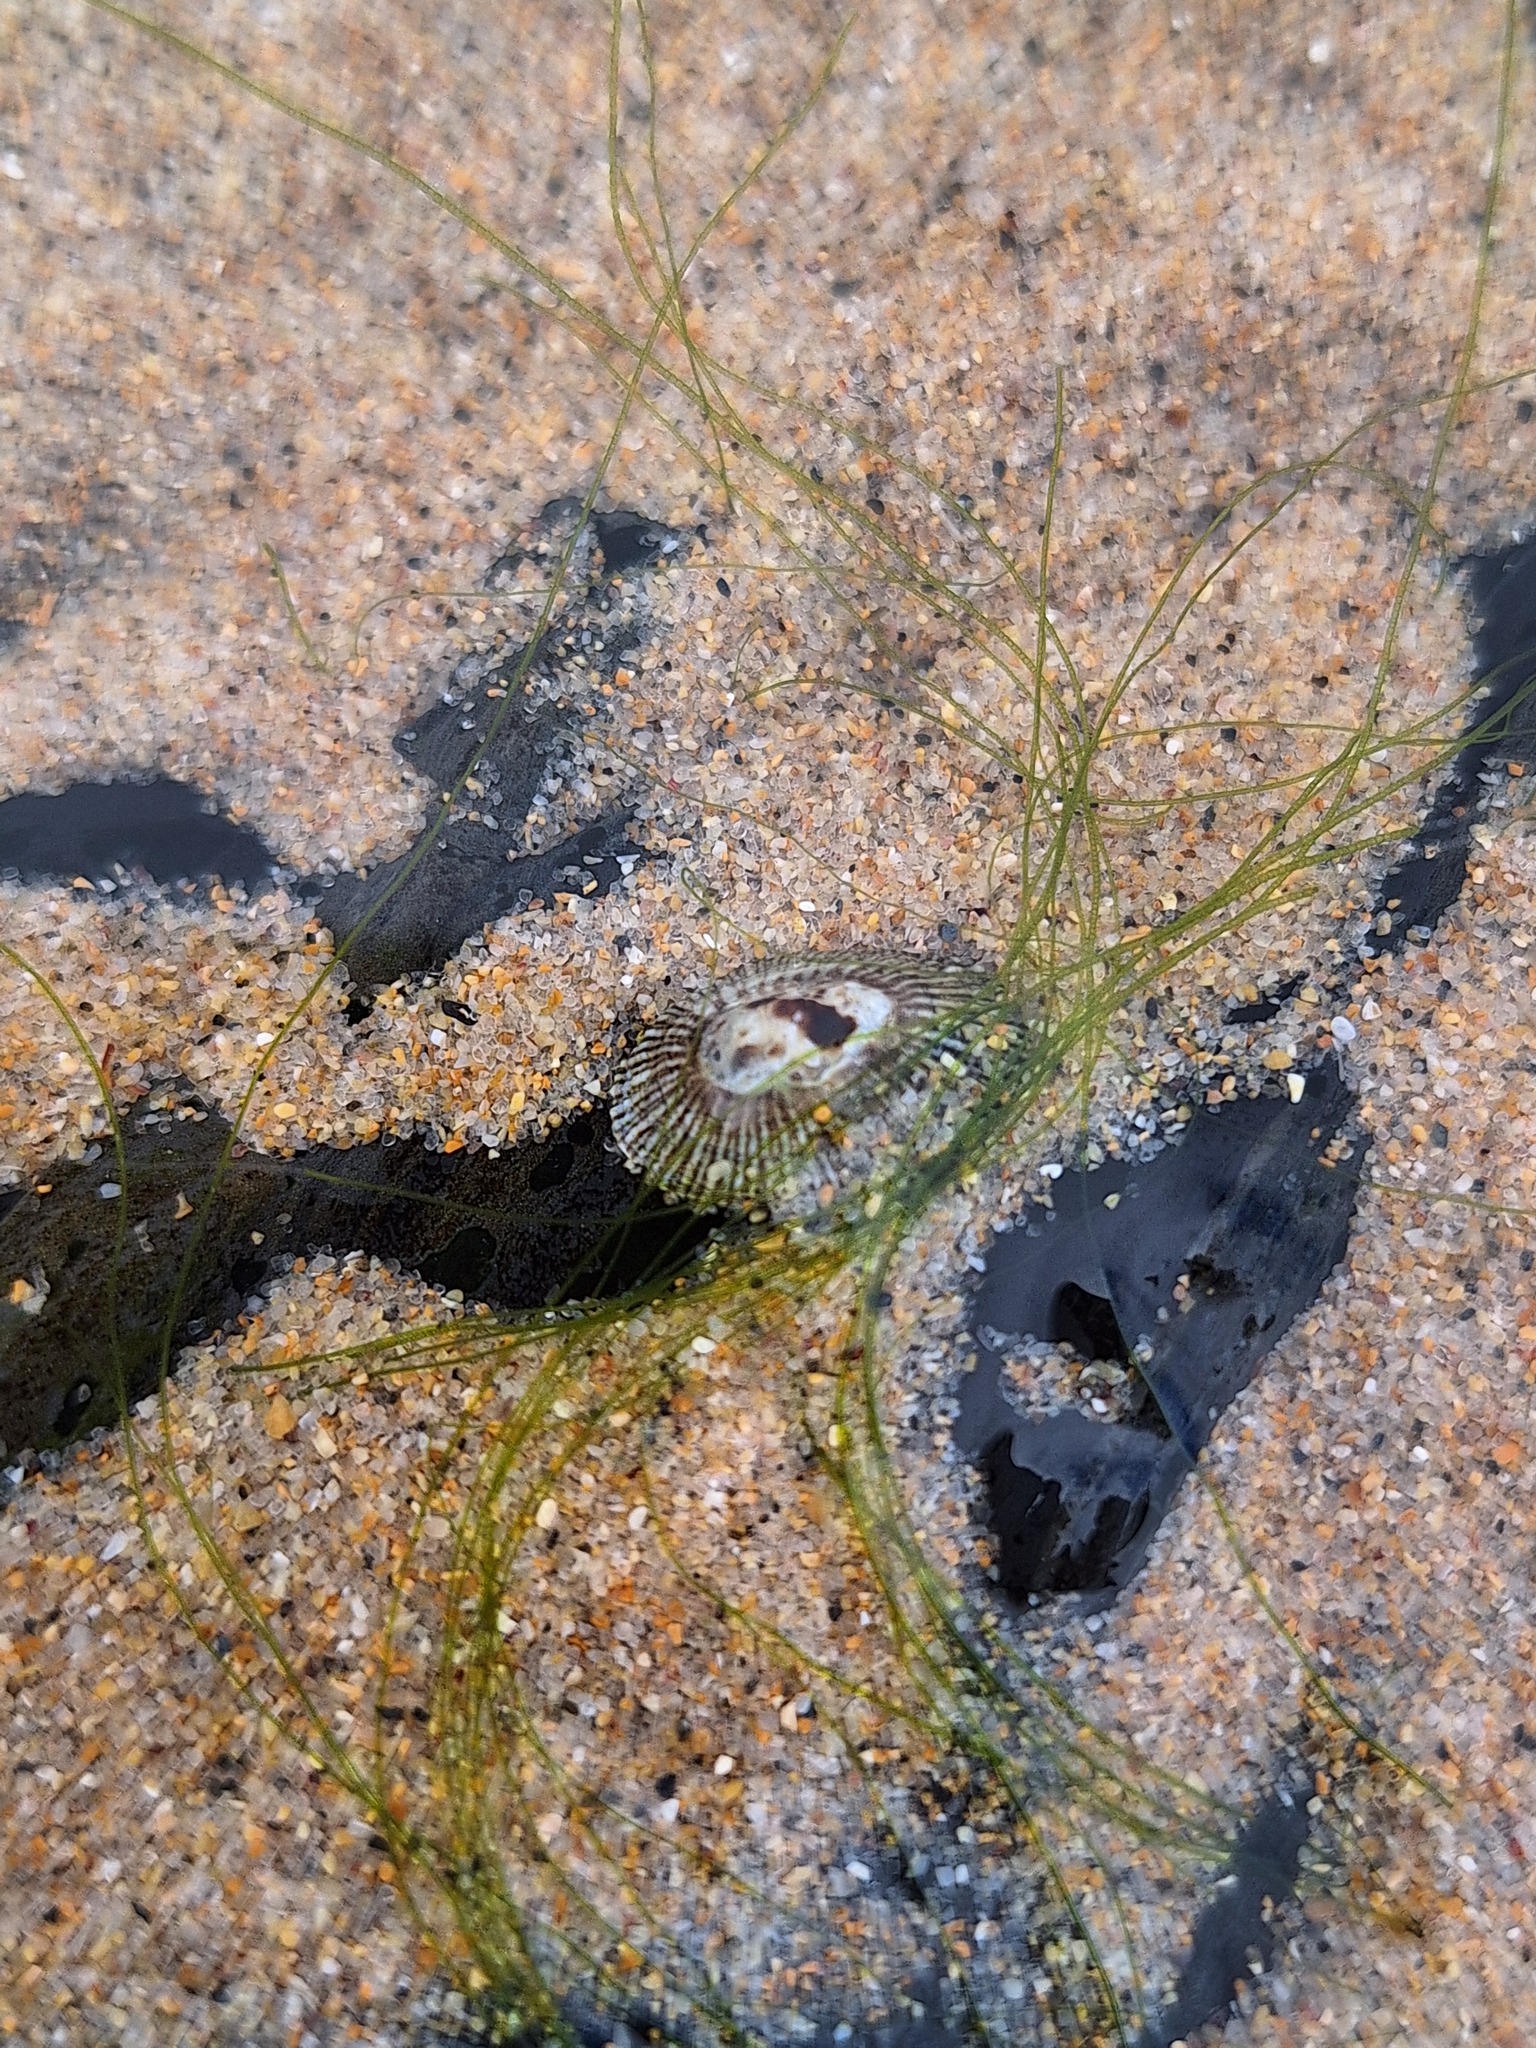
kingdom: Animalia
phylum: Mollusca
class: Gastropoda
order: Siphonariida
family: Siphonariidae
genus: Siphonaria
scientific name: Siphonaria pectinata
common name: Striped false limpet
